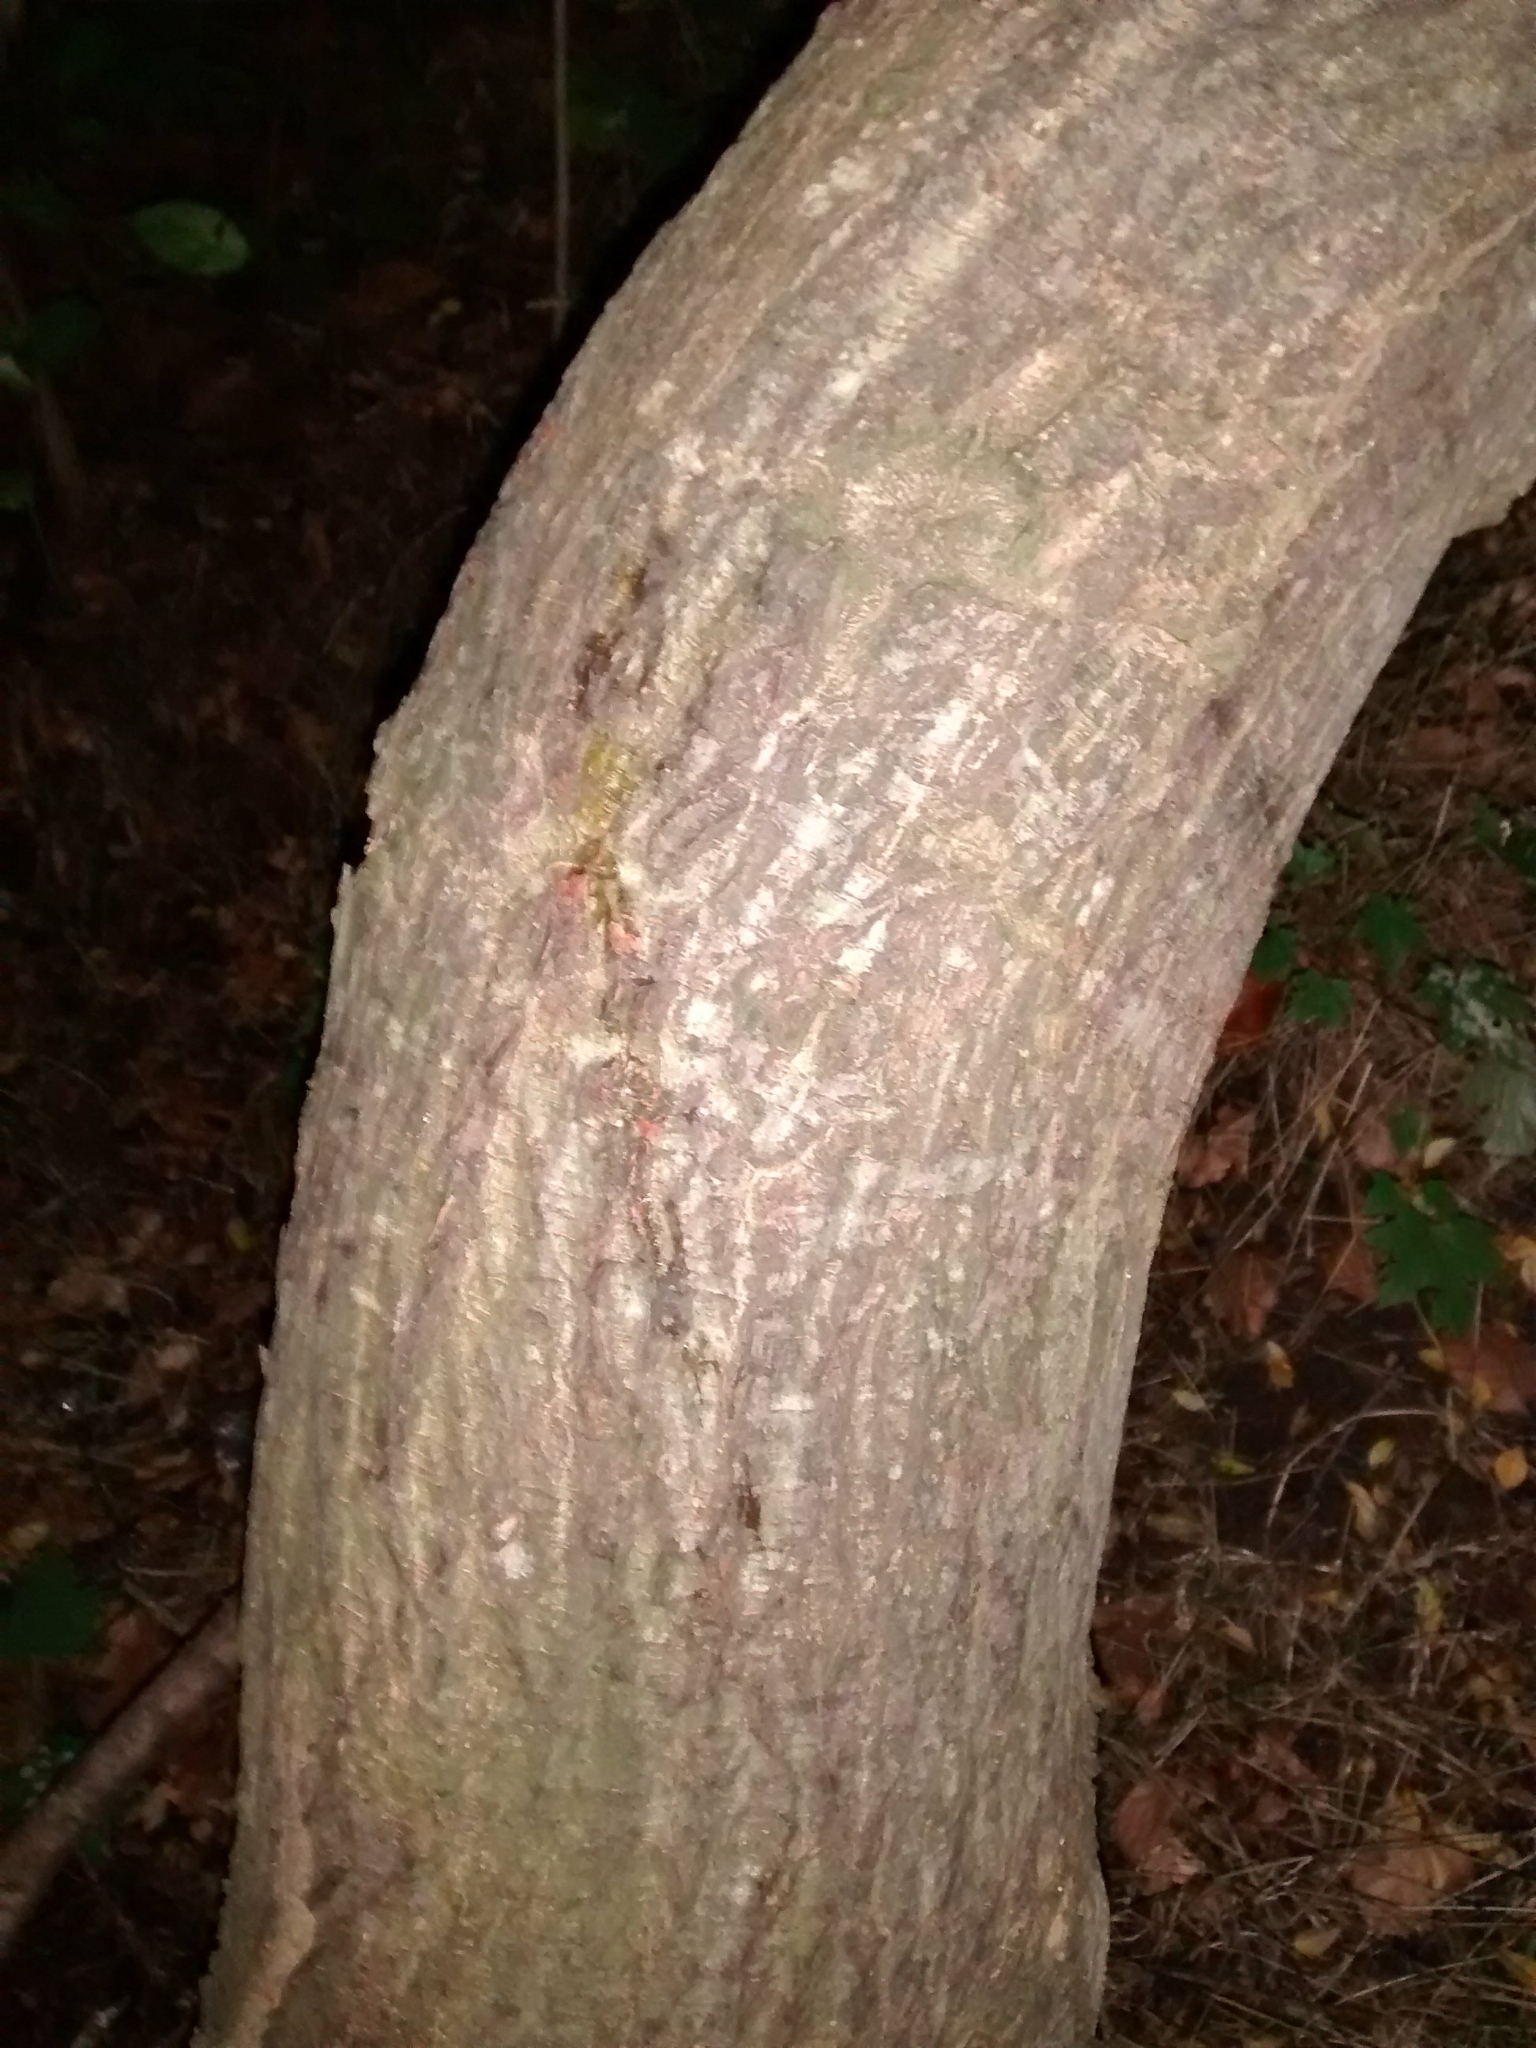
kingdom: Plantae
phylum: Tracheophyta
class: Magnoliopsida
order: Rosales
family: Ulmaceae
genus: Ulmus
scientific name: Ulmus minor
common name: Small-leaved elm
